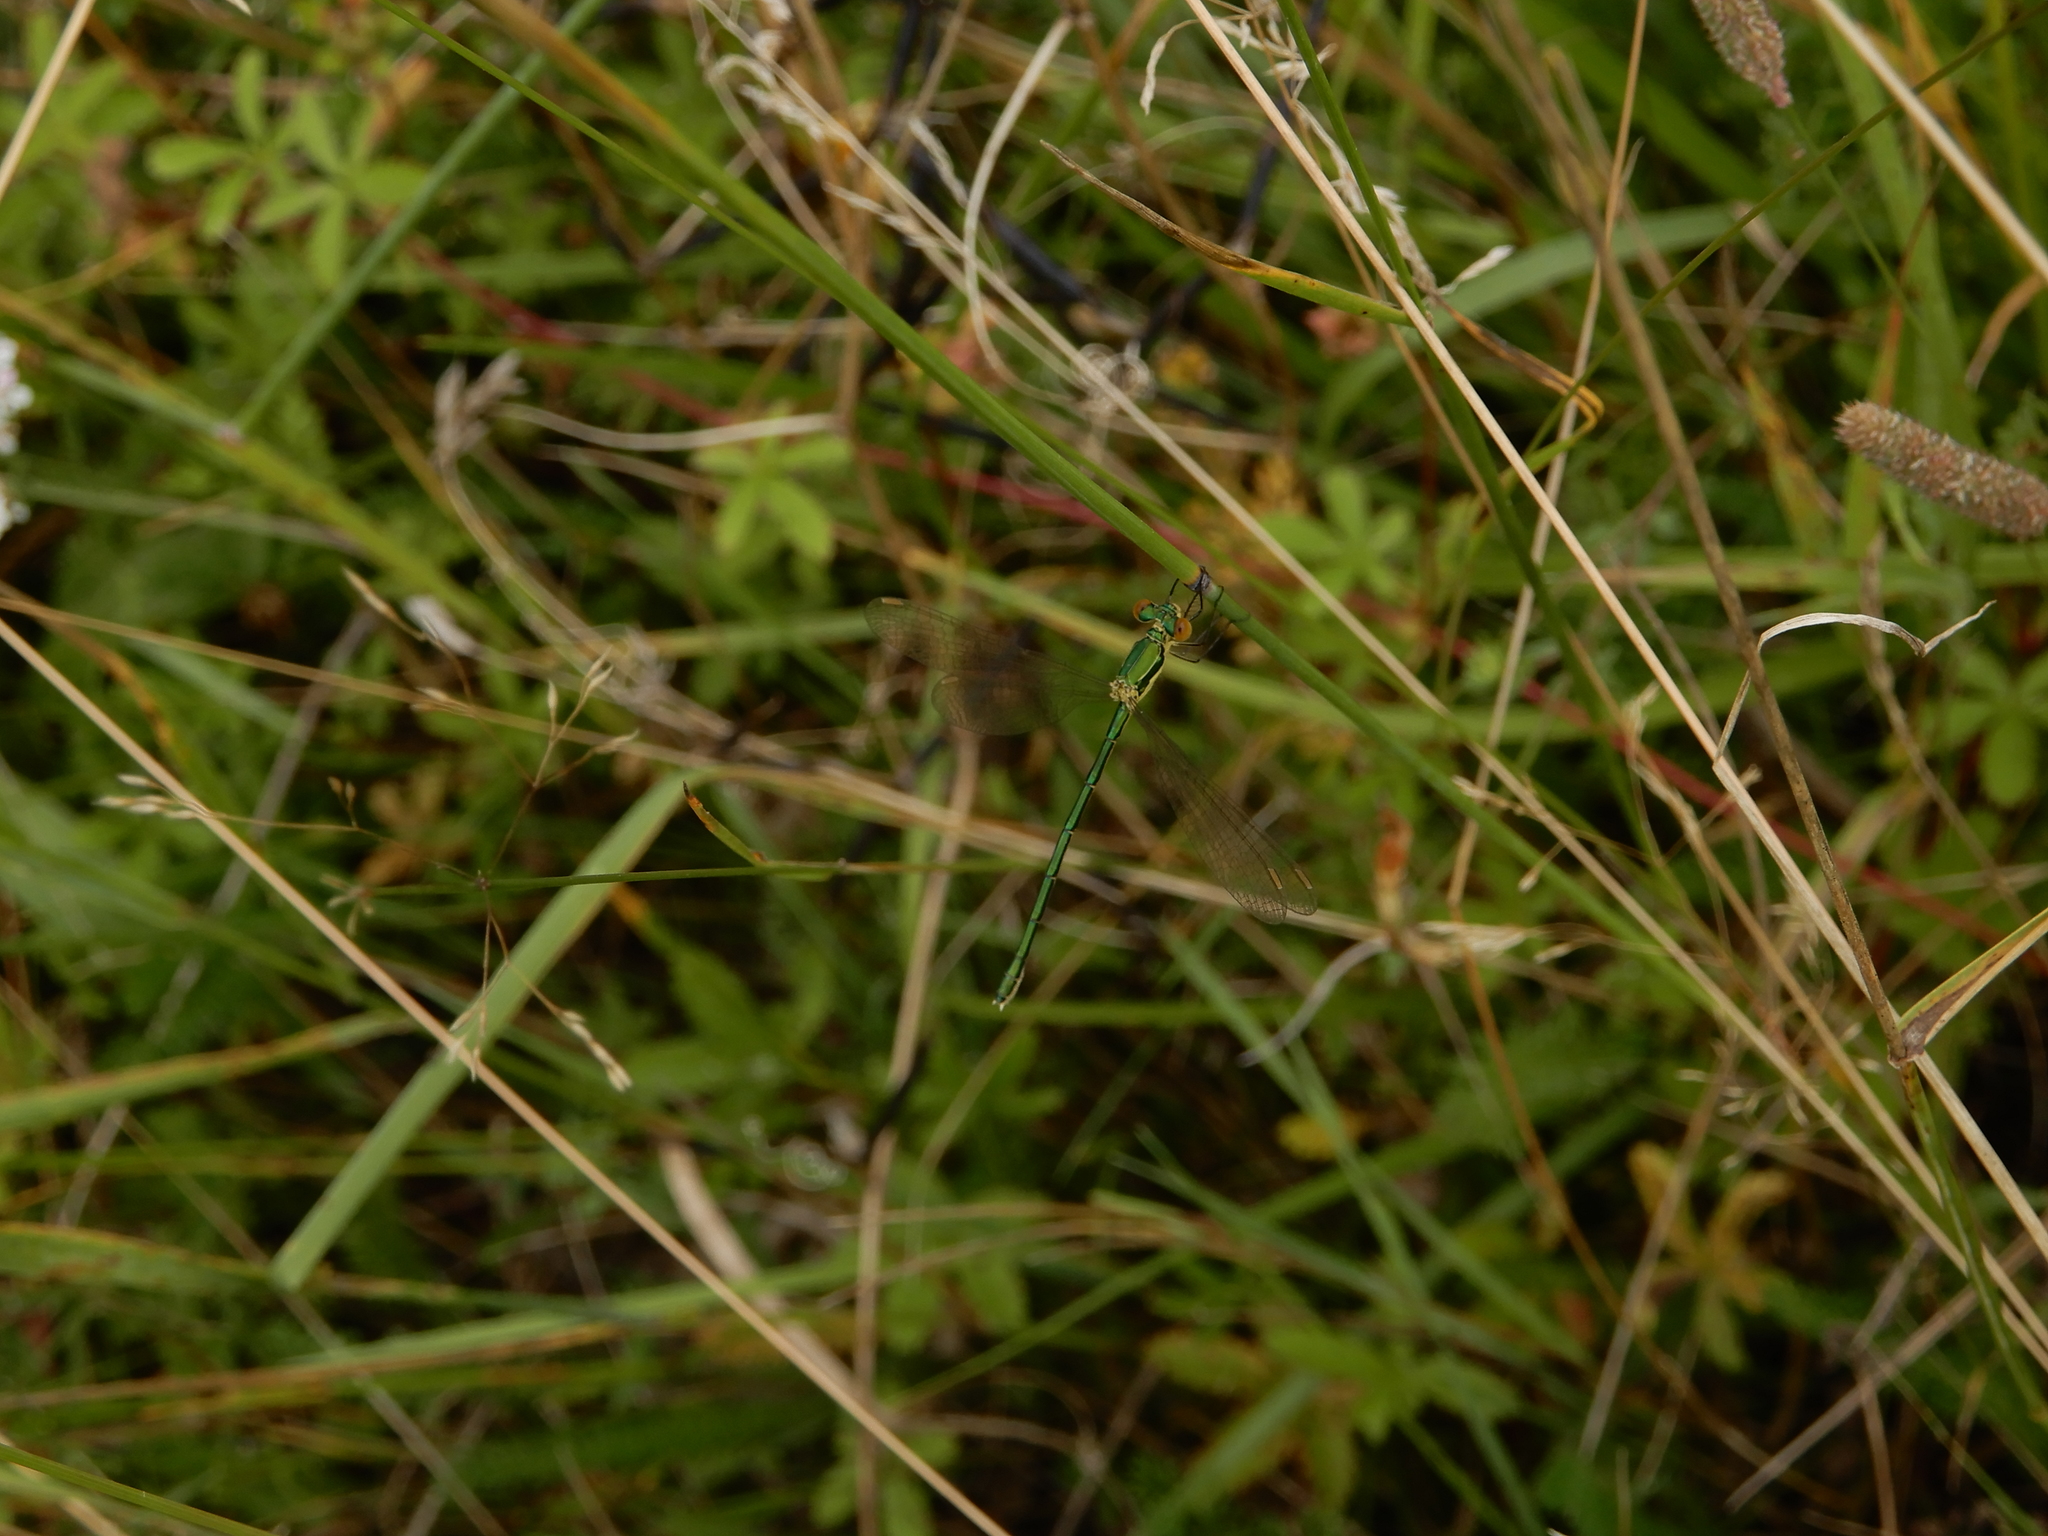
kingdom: Animalia
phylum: Arthropoda
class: Insecta
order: Odonata
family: Lestidae
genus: Lestes
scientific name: Lestes virens
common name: Small emerald spreadwing
